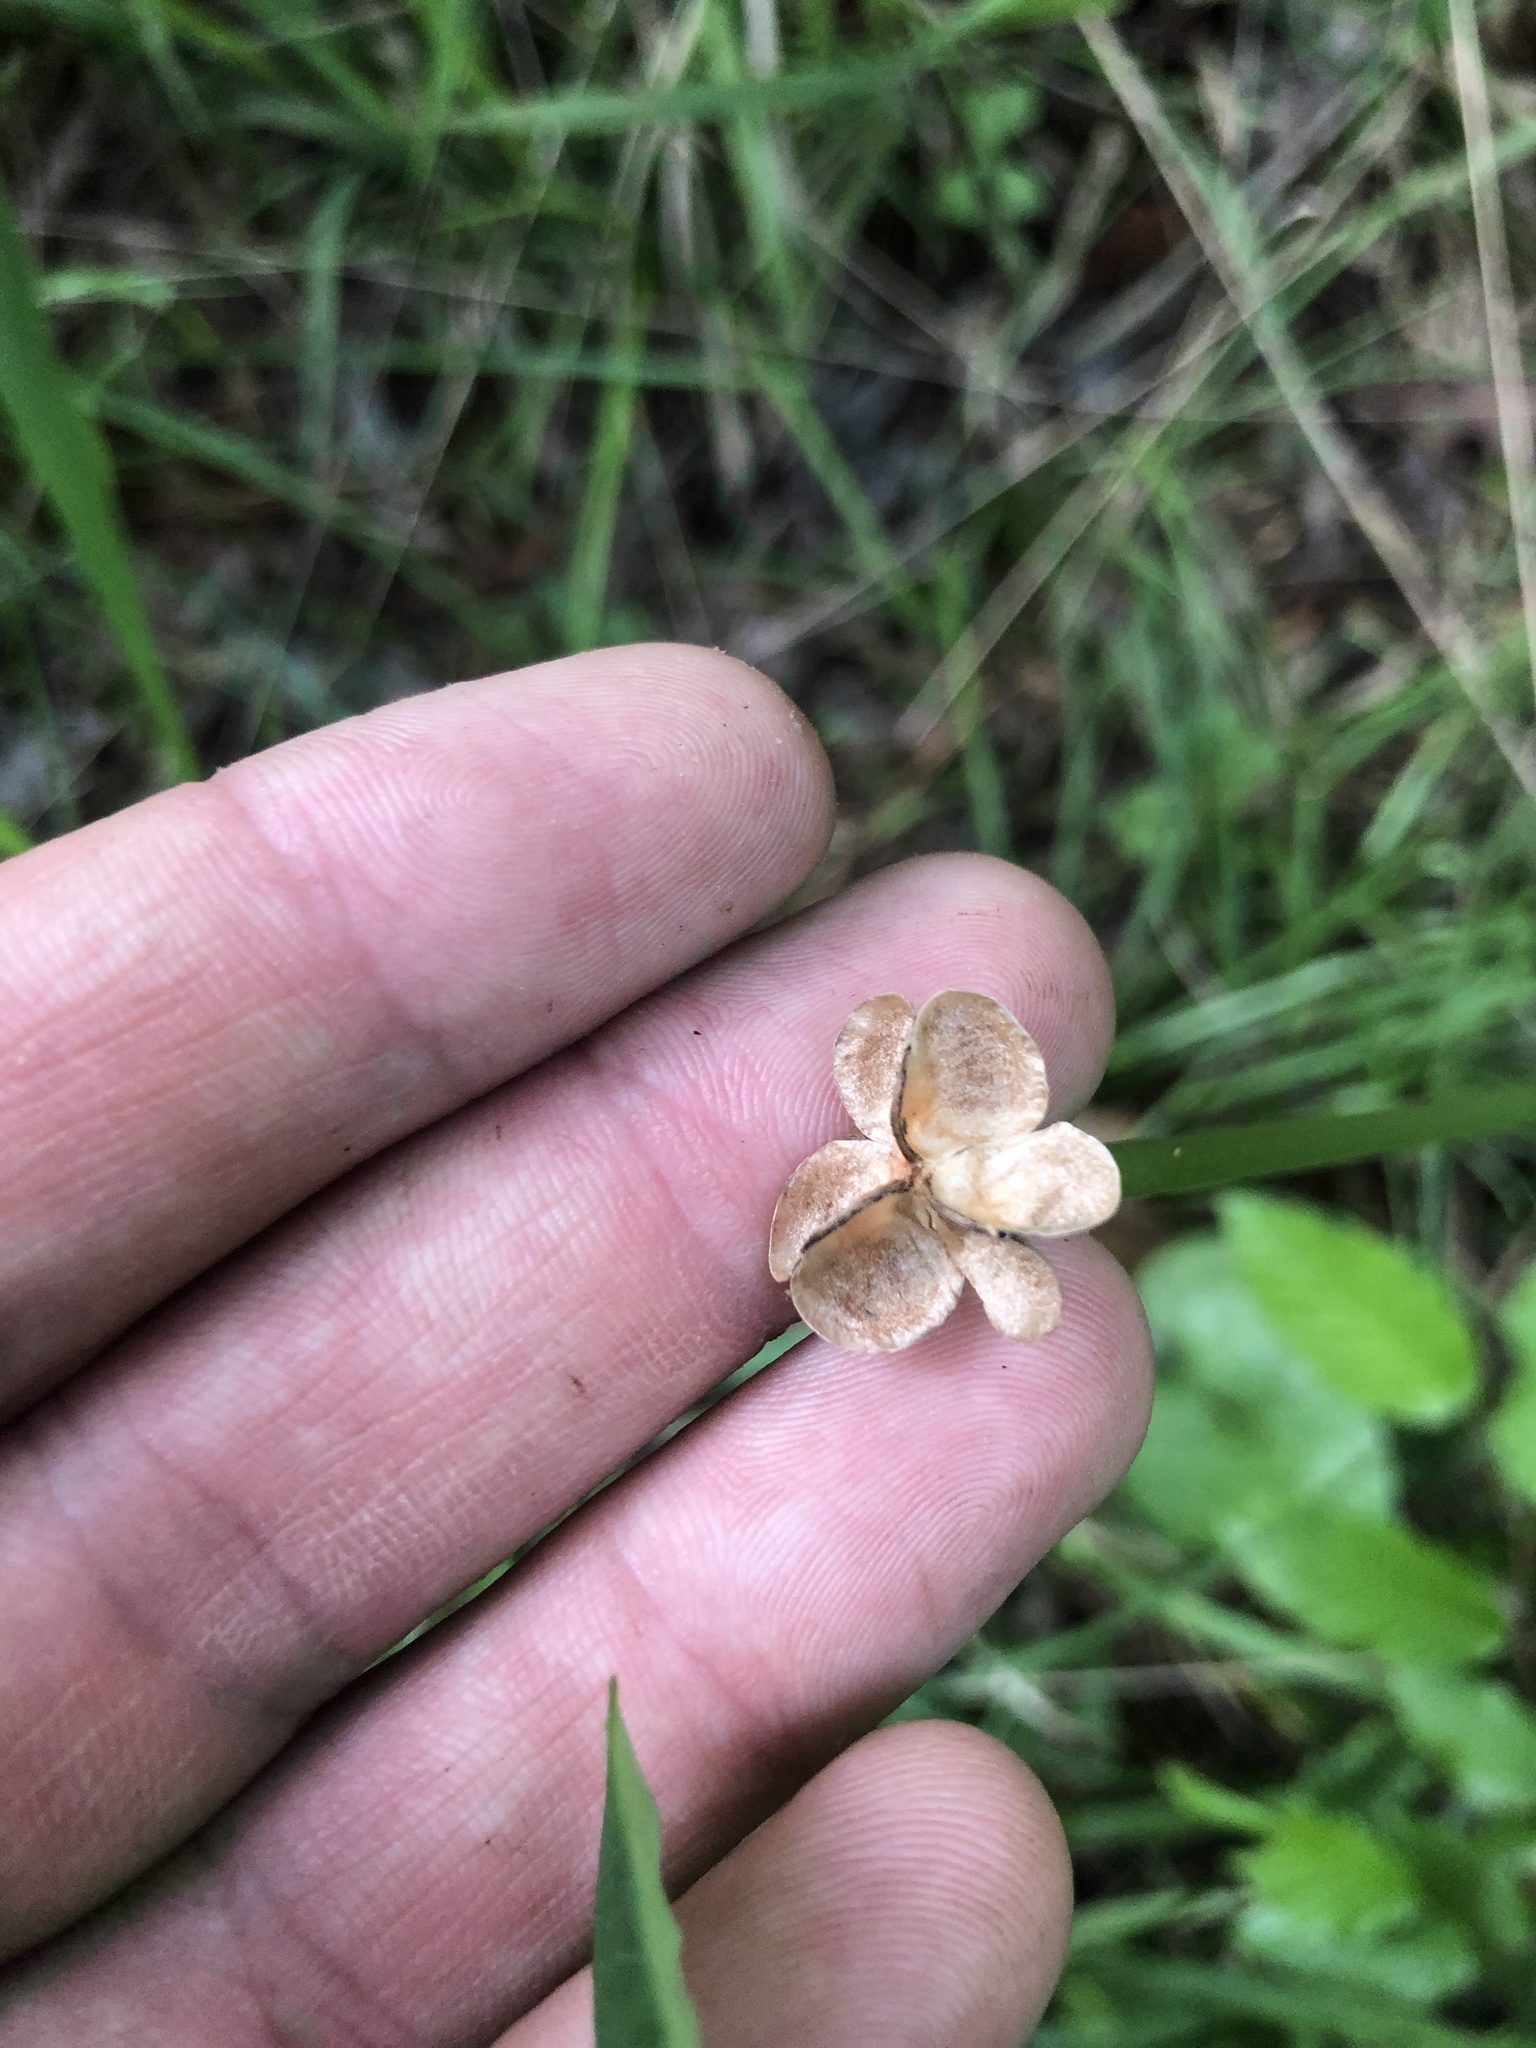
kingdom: Plantae
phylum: Tracheophyta
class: Liliopsida
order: Asparagales
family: Amaryllidaceae
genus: Zephyranthes
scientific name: Zephyranthes atamasco
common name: Atamasco lily
